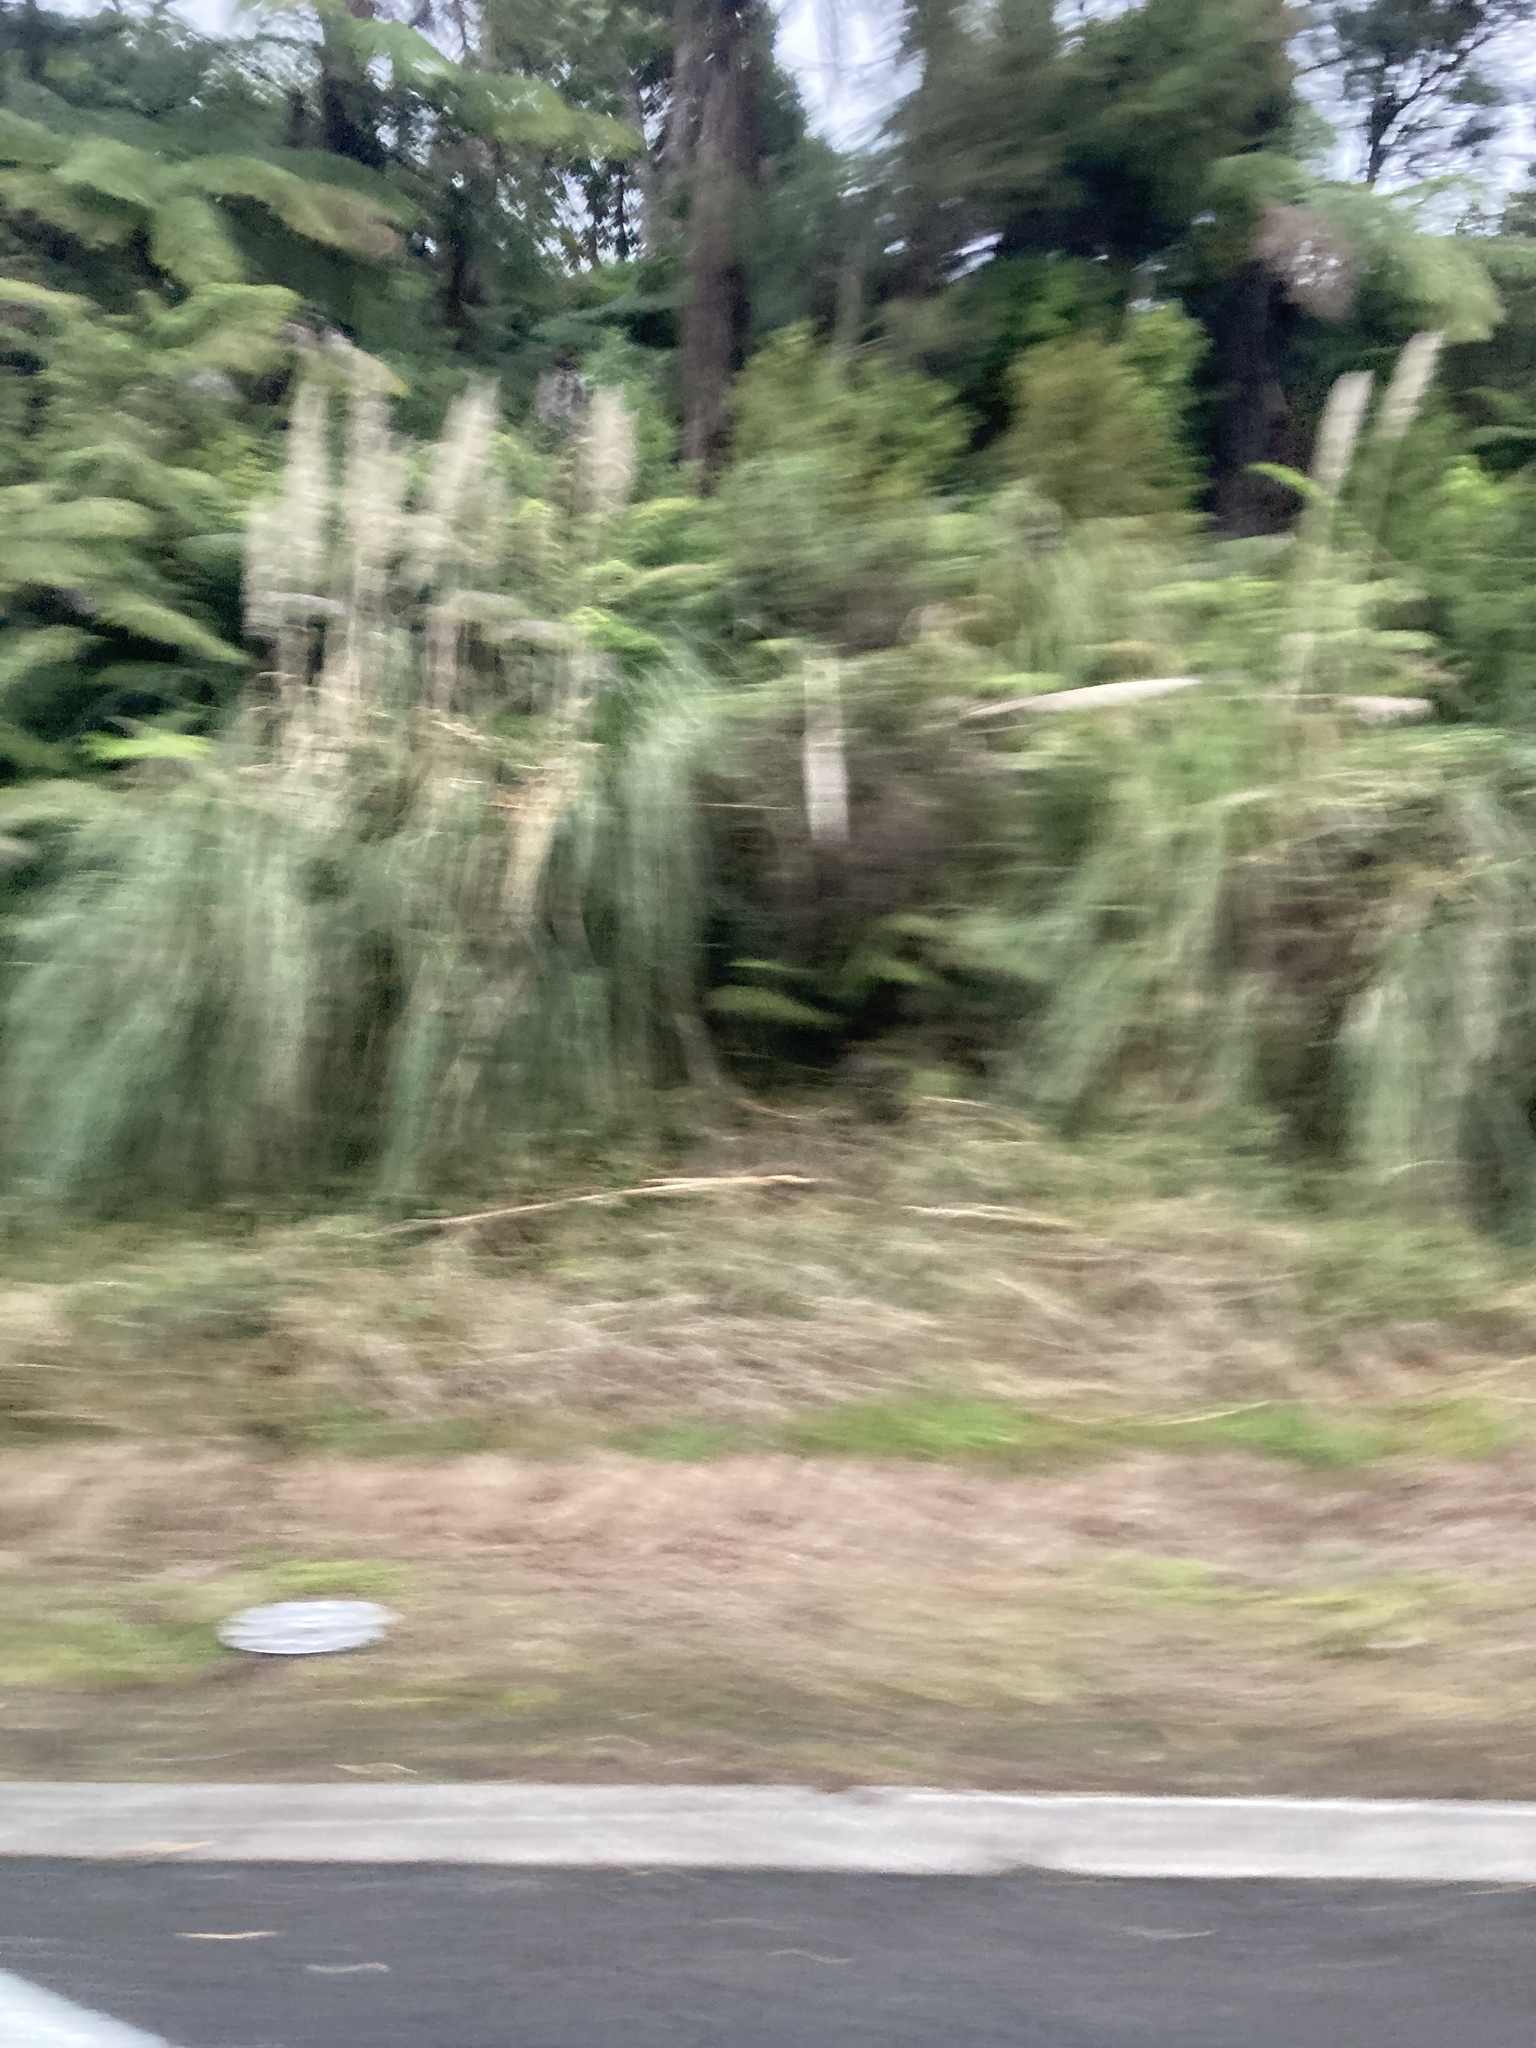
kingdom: Plantae
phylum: Tracheophyta
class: Liliopsida
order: Poales
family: Poaceae
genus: Cortaderia
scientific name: Cortaderia selloana
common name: Uruguayan pampas grass
